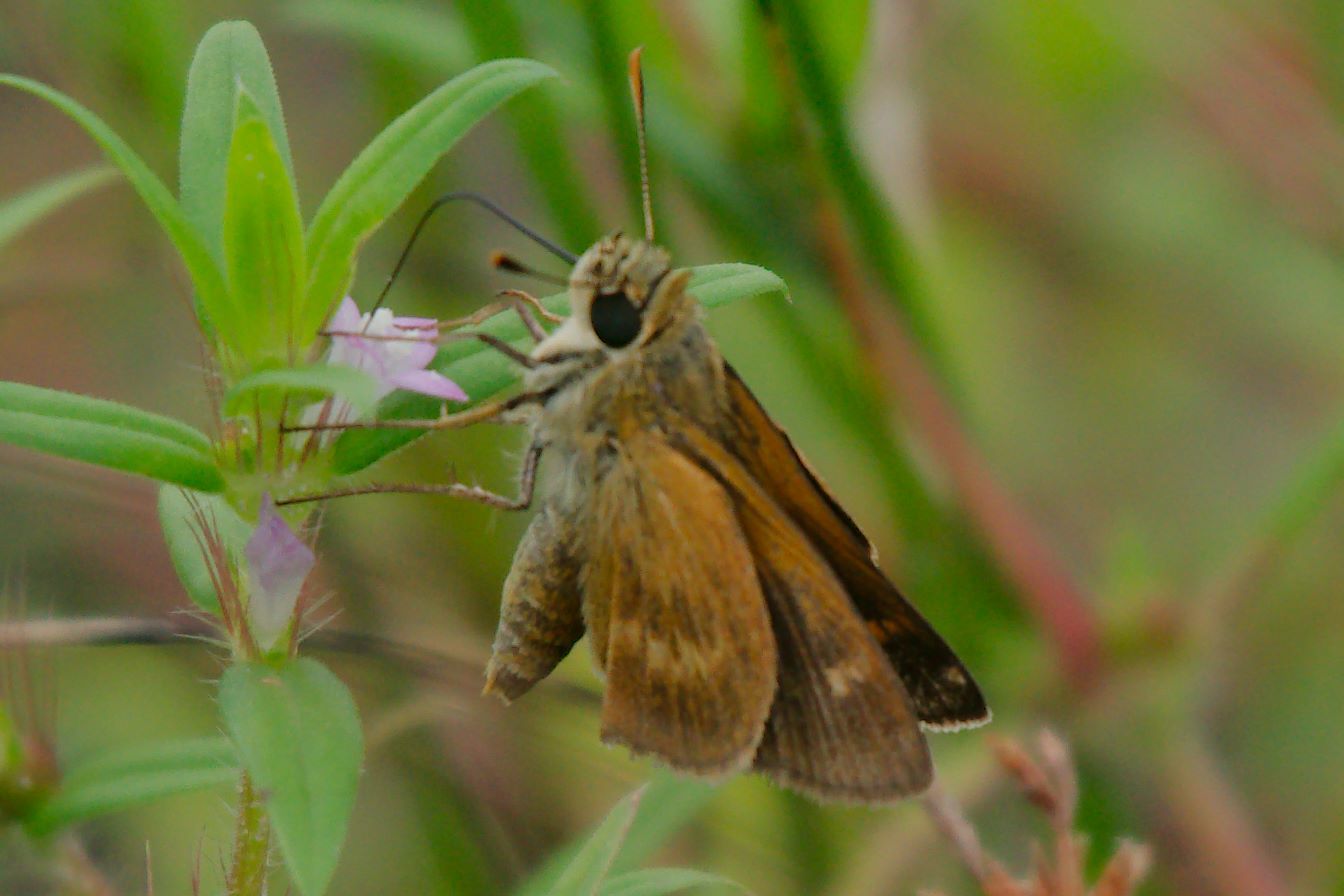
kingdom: Animalia
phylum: Arthropoda
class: Insecta
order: Lepidoptera
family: Hesperiidae
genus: Polites
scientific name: Polites otho
